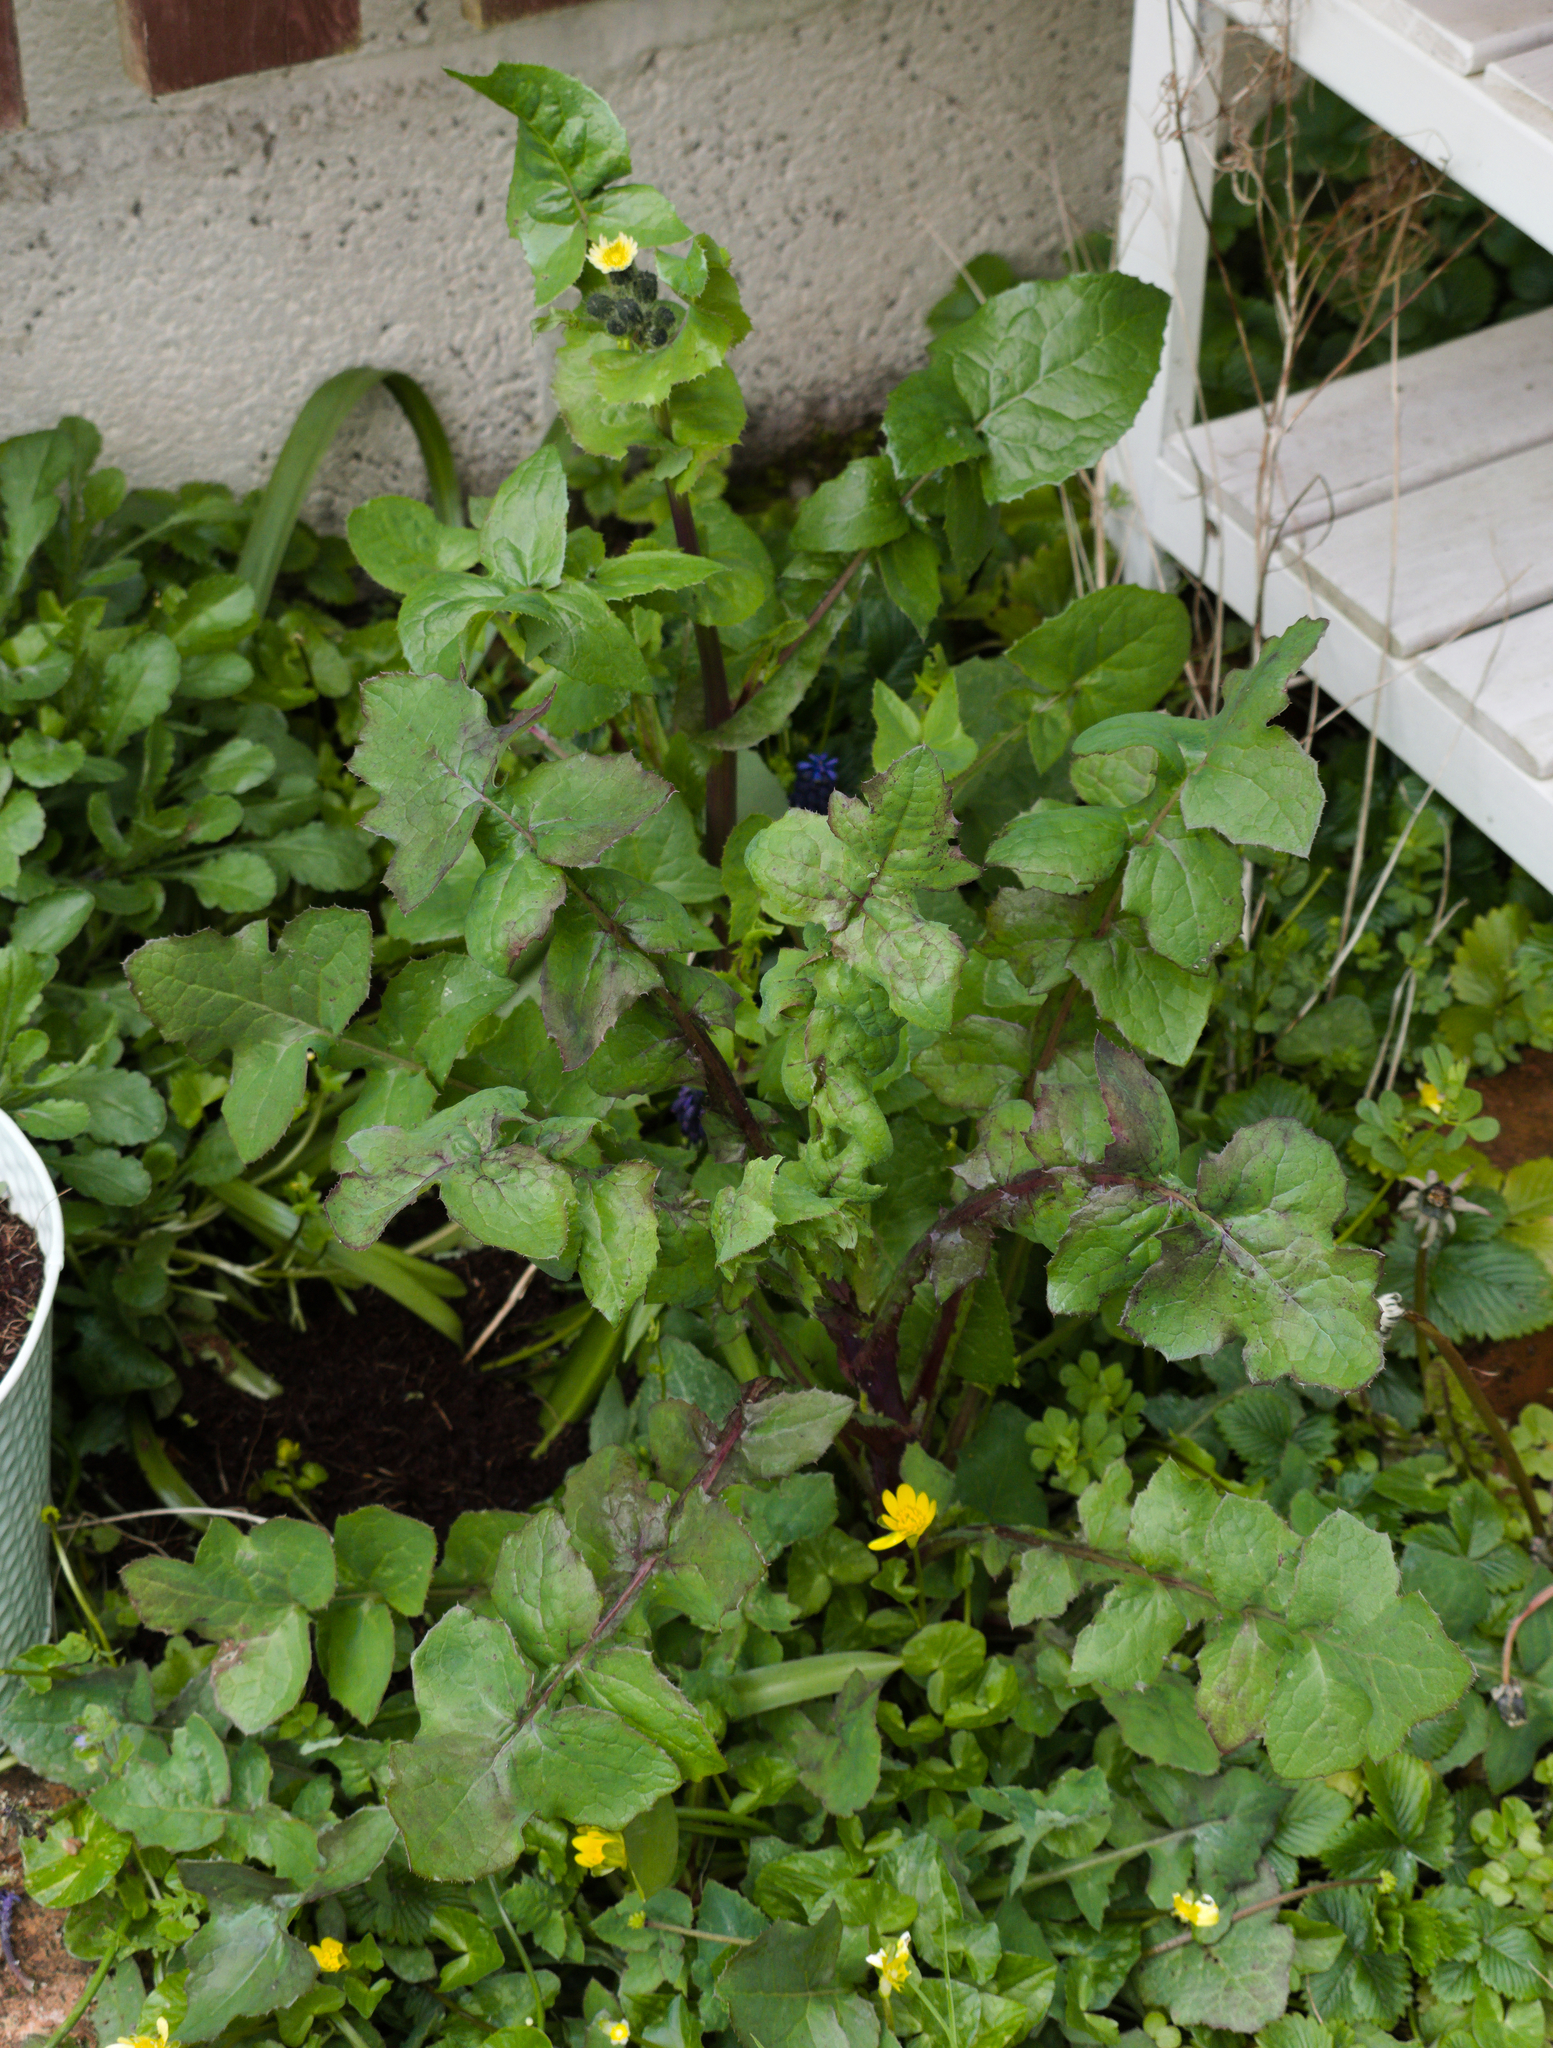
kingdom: Plantae
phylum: Tracheophyta
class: Magnoliopsida
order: Asterales
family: Asteraceae
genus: Sonchus
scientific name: Sonchus oleraceus
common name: Common sowthistle
